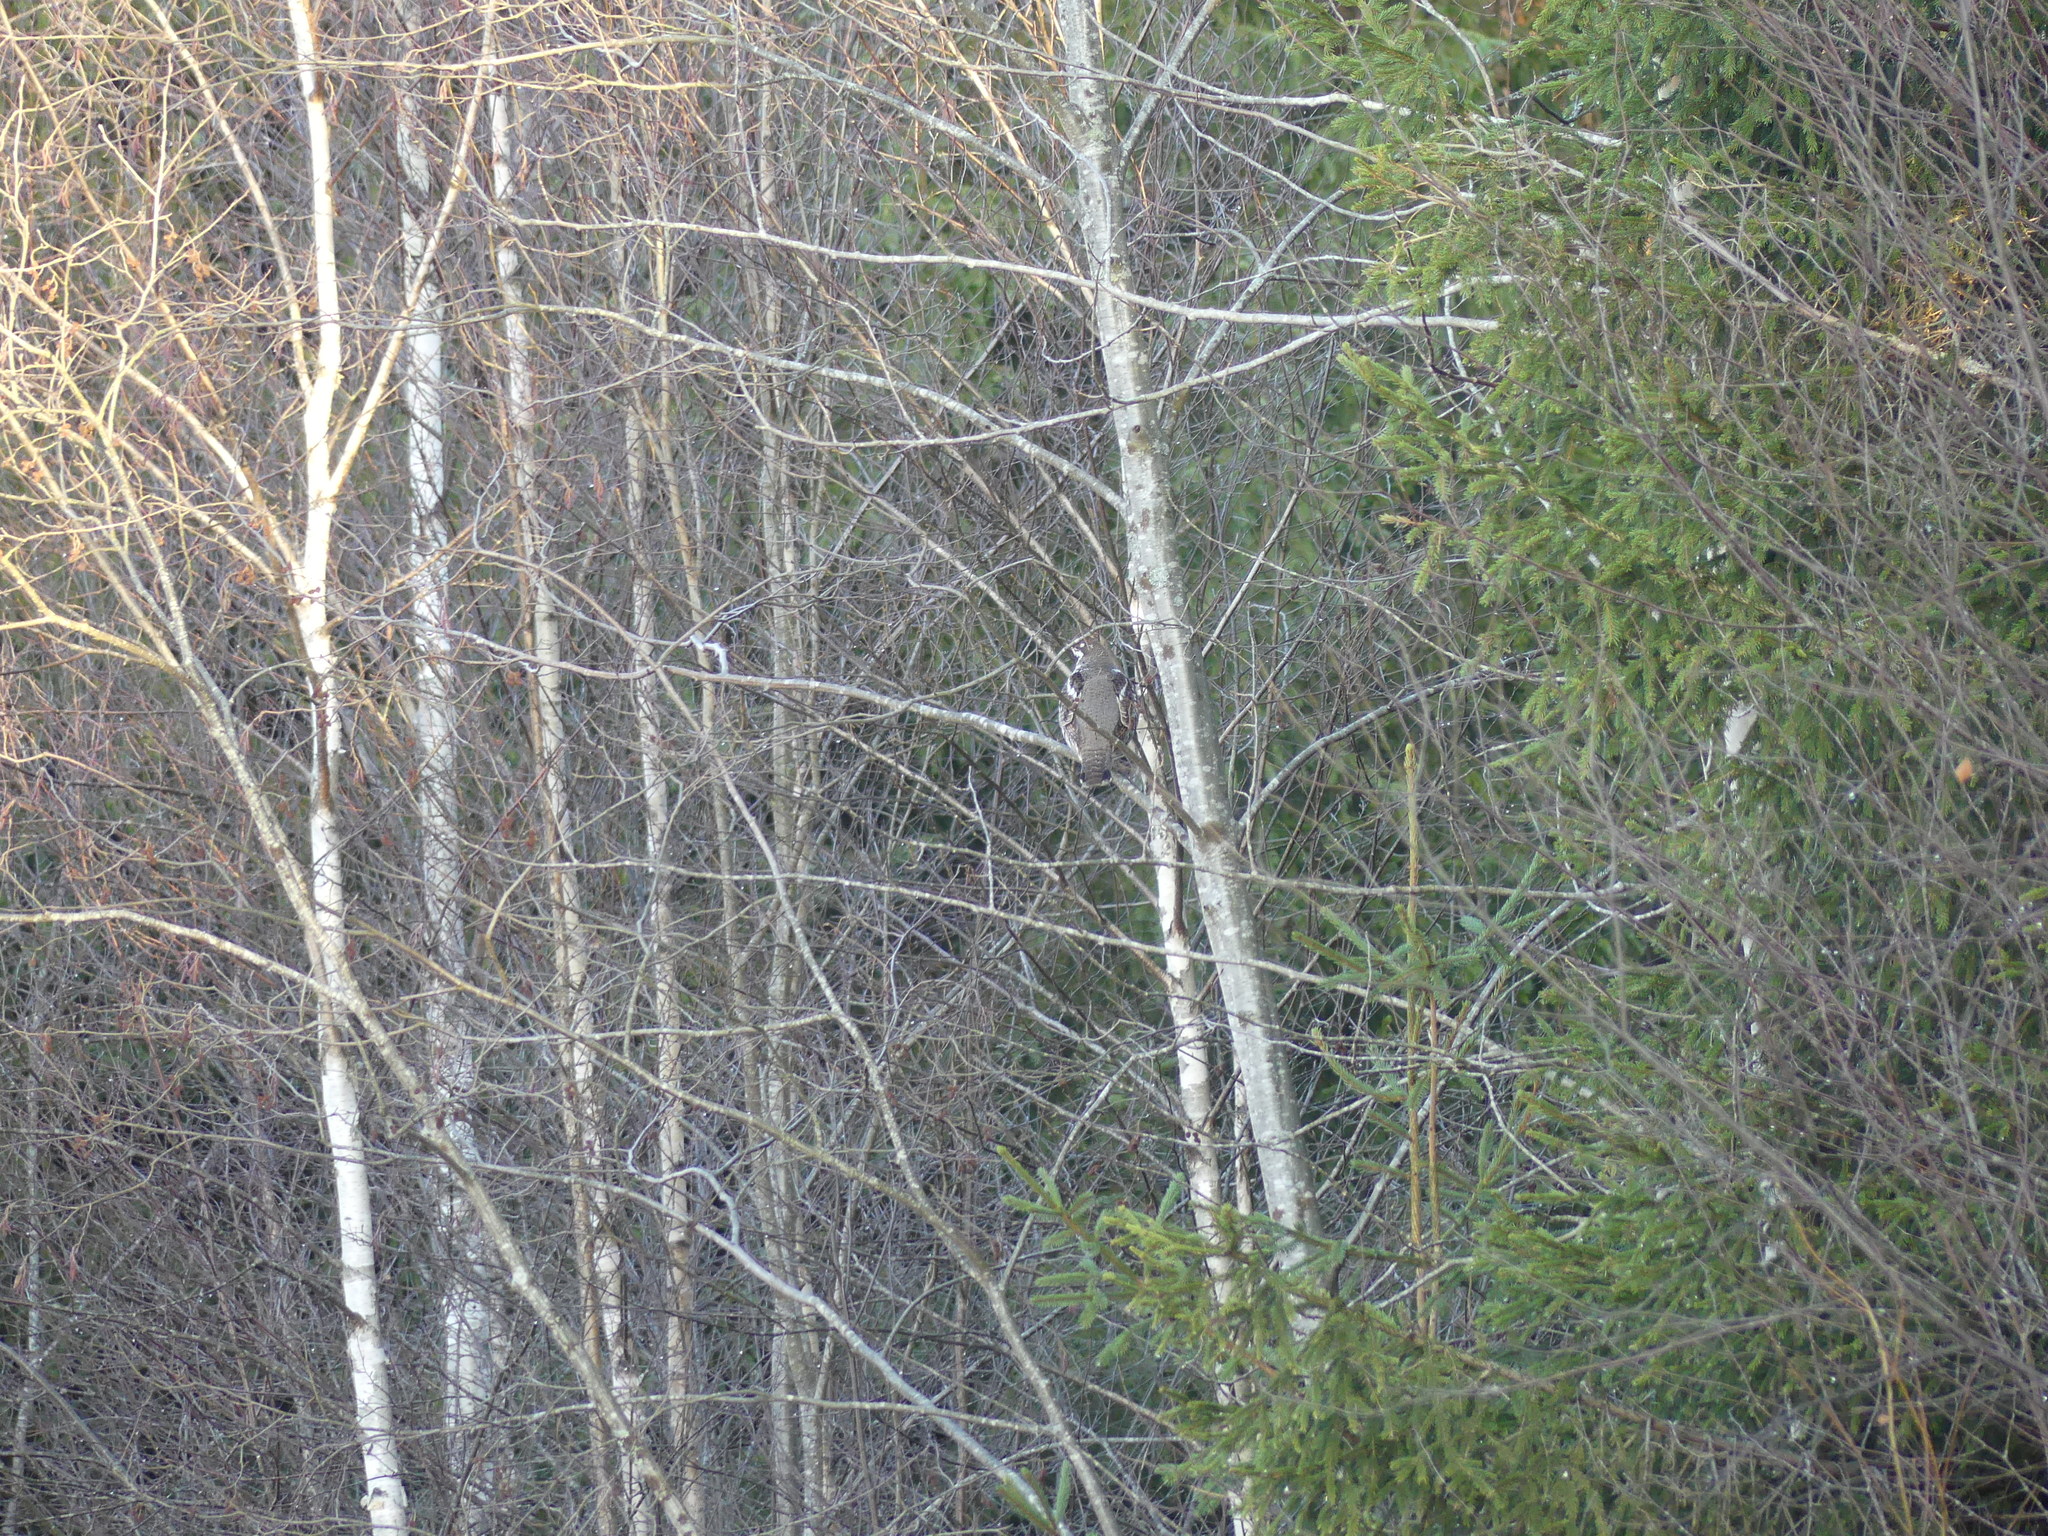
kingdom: Animalia
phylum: Chordata
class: Aves
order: Galliformes
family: Phasianidae
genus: Tetrastes
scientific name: Tetrastes bonasia
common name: Hazel grouse
